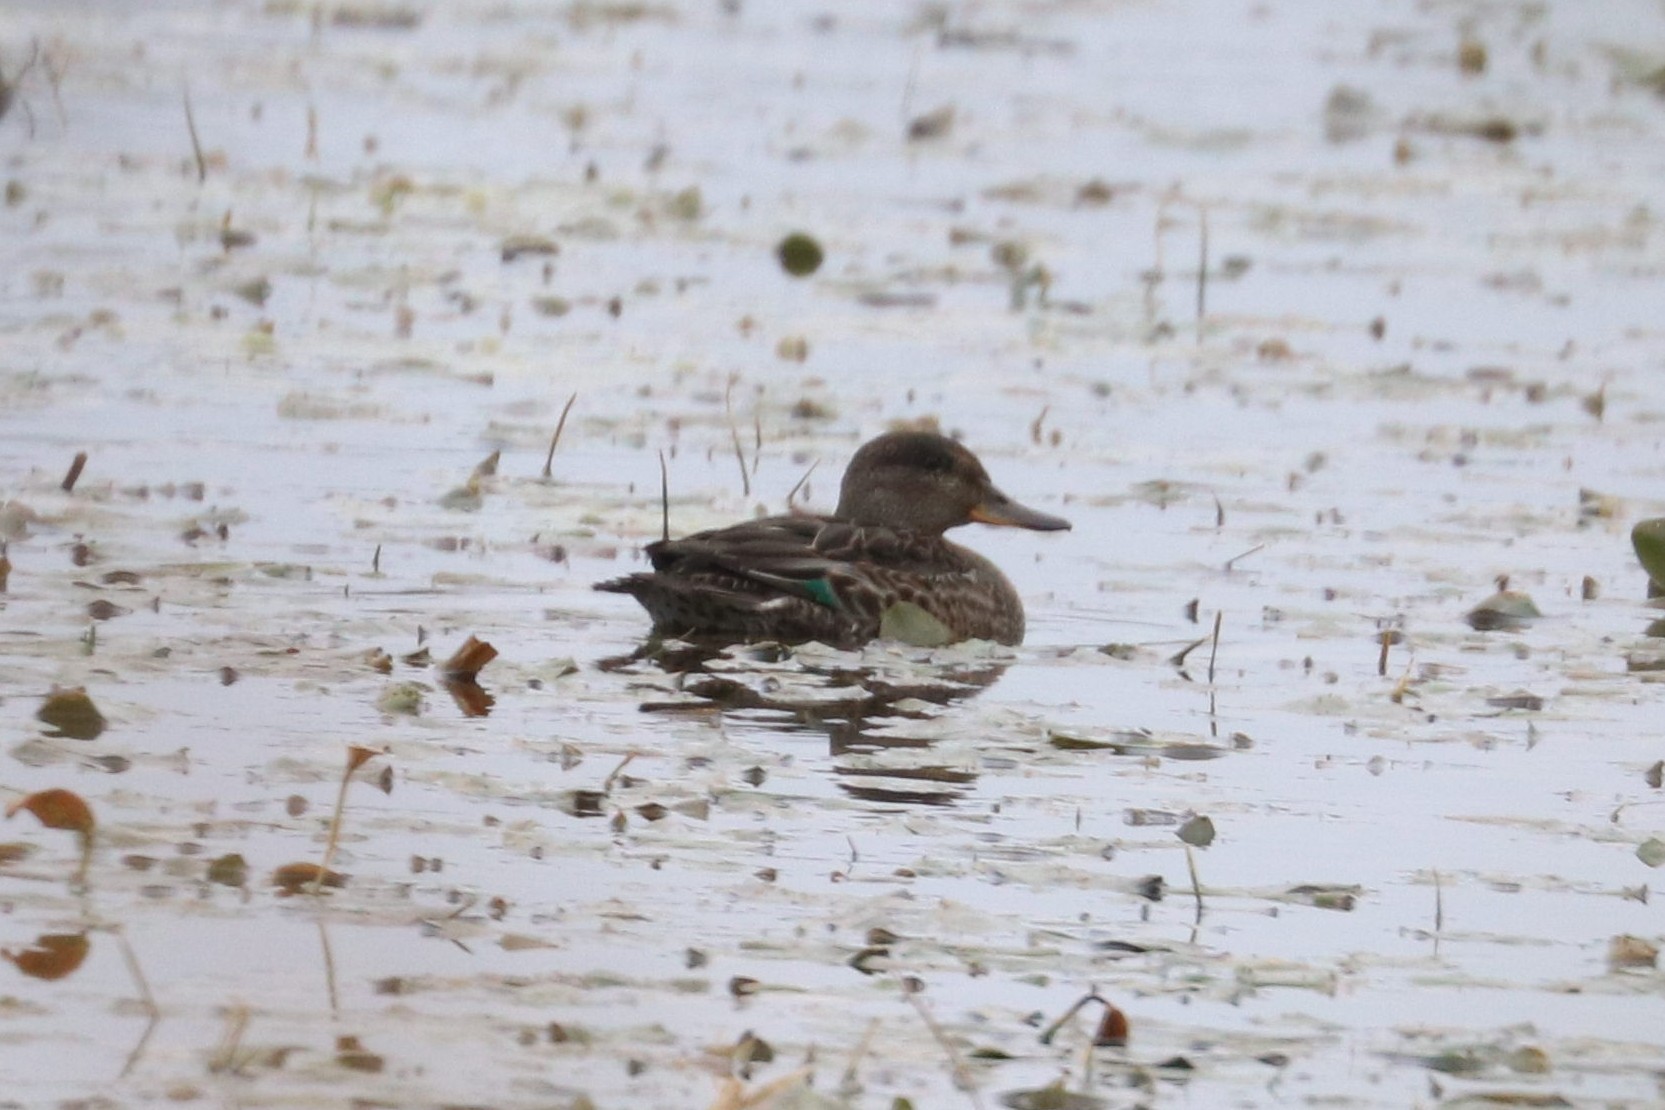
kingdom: Animalia
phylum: Chordata
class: Aves
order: Anseriformes
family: Anatidae
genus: Anas
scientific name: Anas crecca
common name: Eurasian teal
